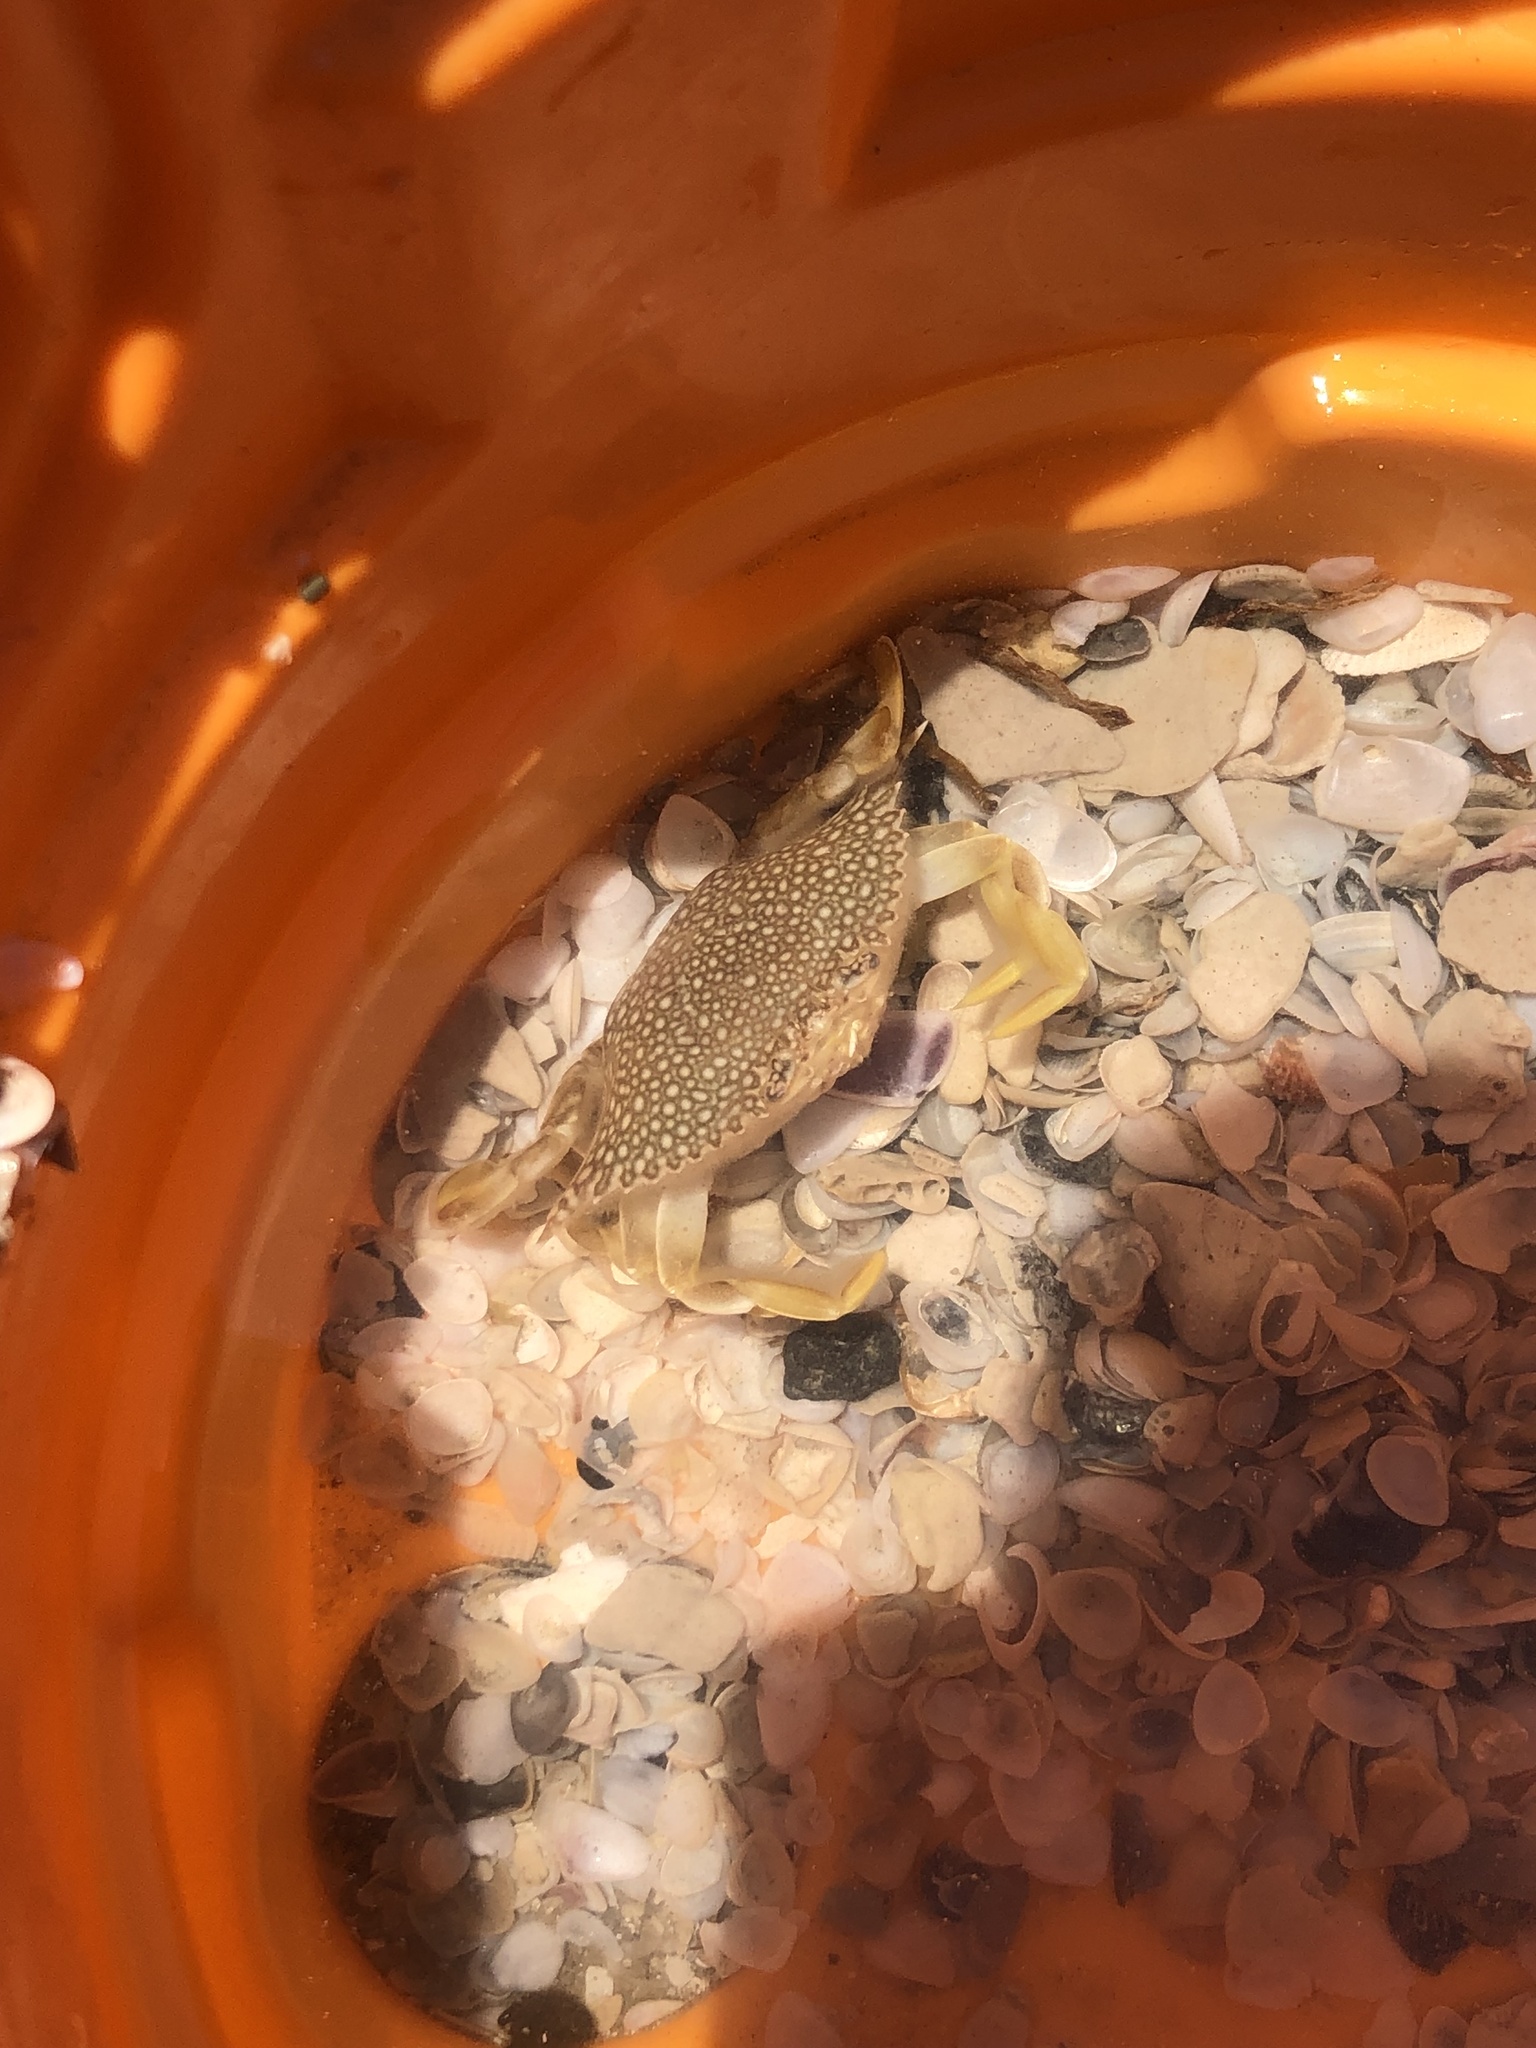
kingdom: Animalia
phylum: Arthropoda
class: Malacostraca
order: Decapoda
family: Portunidae
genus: Arenaeus
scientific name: Arenaeus cribrarius
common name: Speckled crab
